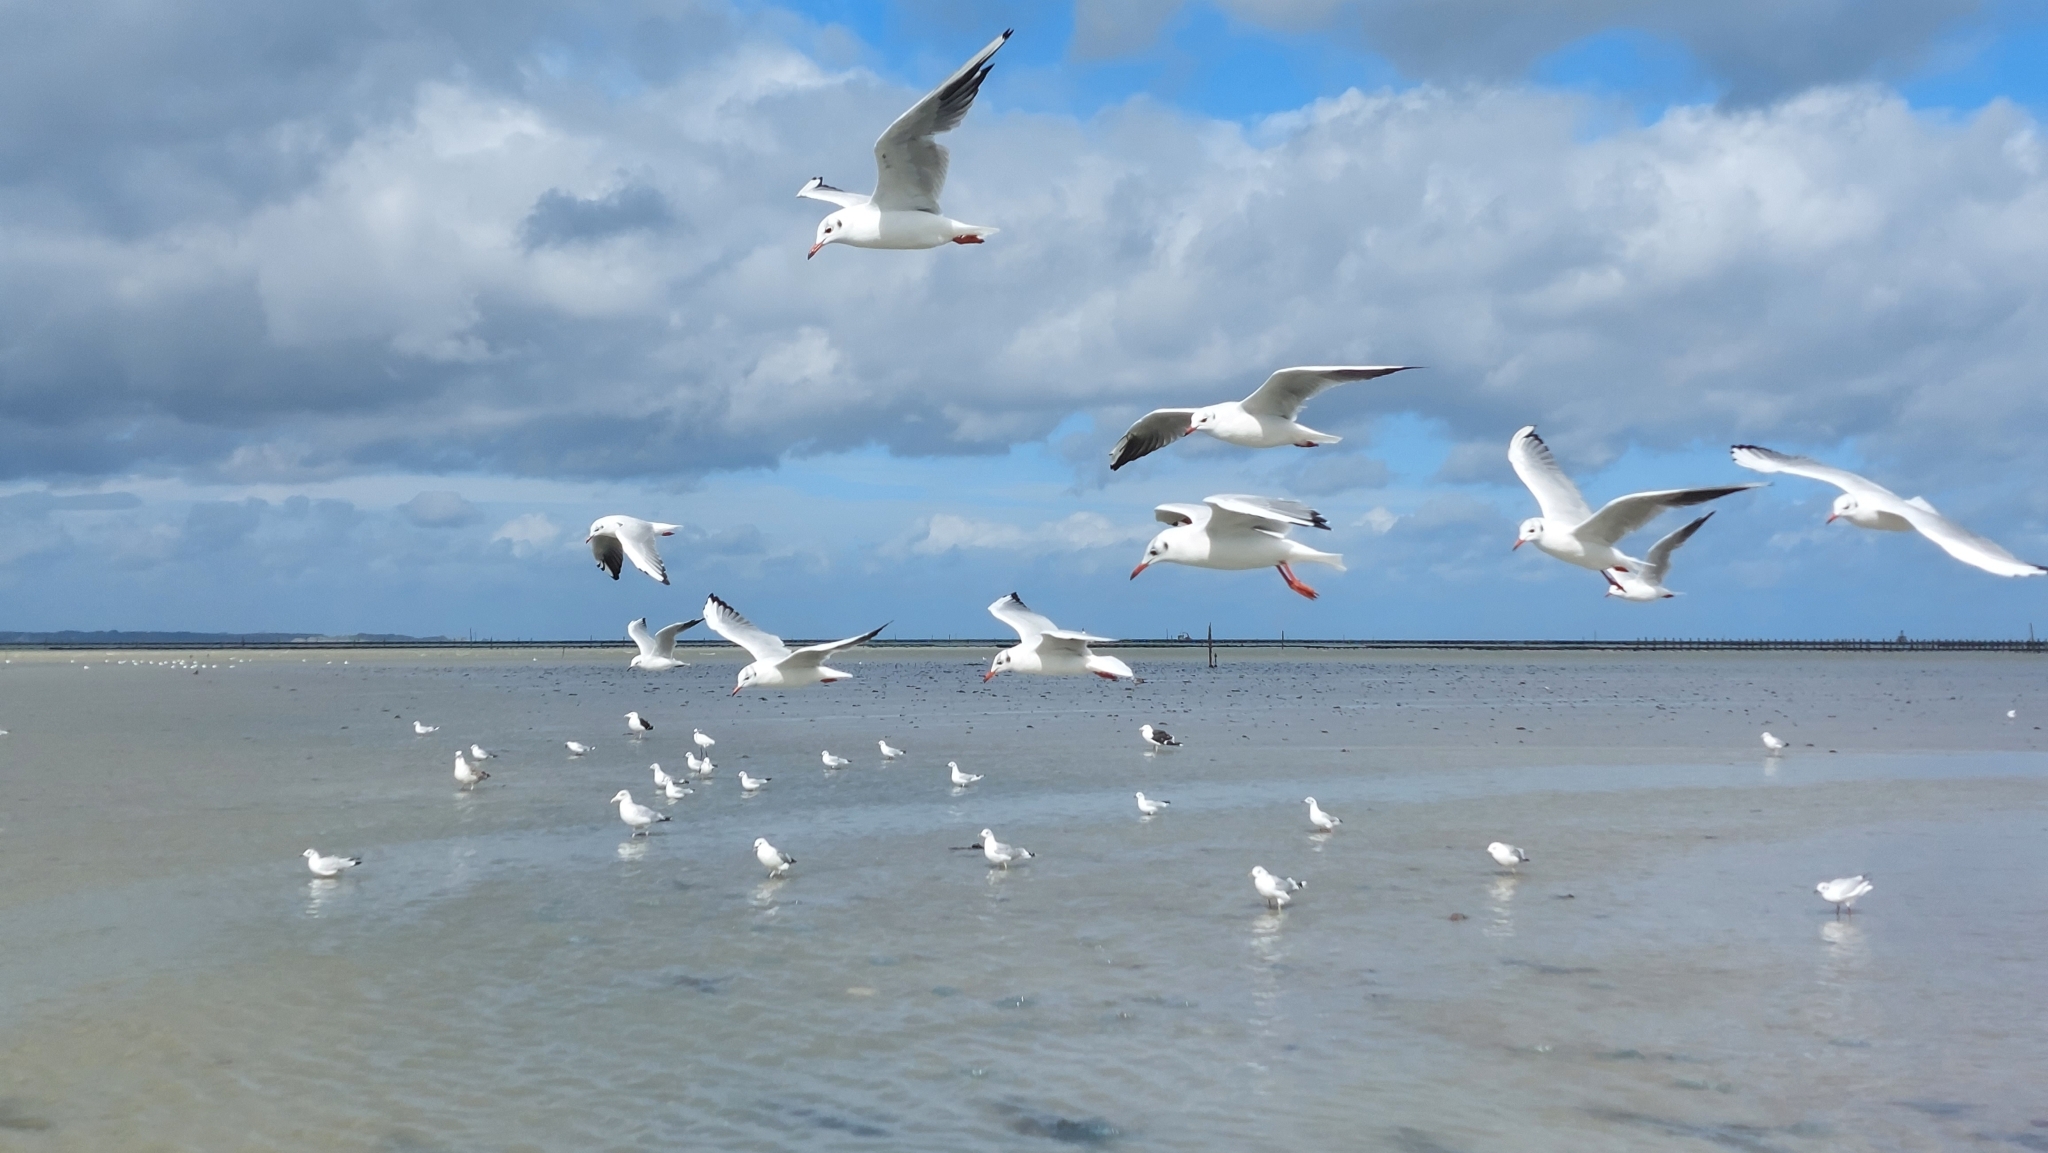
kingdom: Animalia
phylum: Chordata
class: Aves
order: Charadriiformes
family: Laridae
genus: Chroicocephalus
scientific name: Chroicocephalus ridibundus
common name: Black-headed gull
